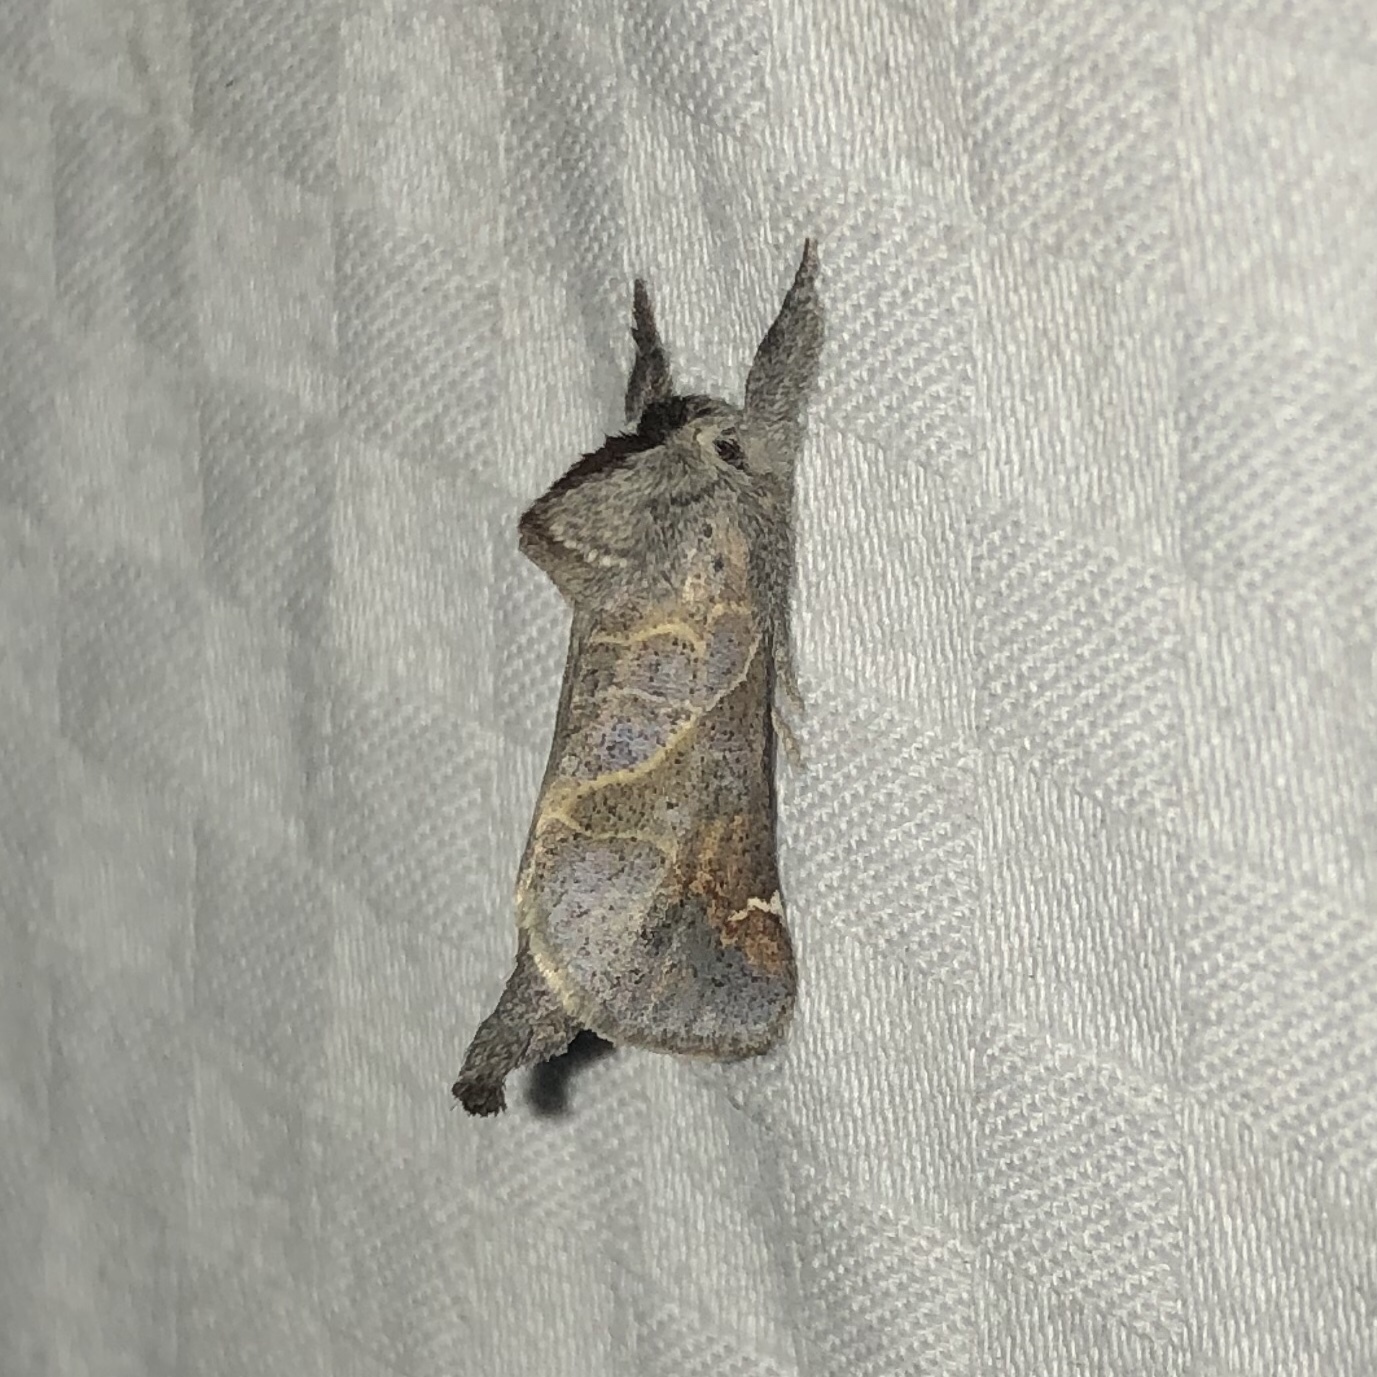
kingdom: Animalia
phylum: Arthropoda
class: Insecta
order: Lepidoptera
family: Notodontidae
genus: Clostera
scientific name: Clostera apicalis
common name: Apical prominent
